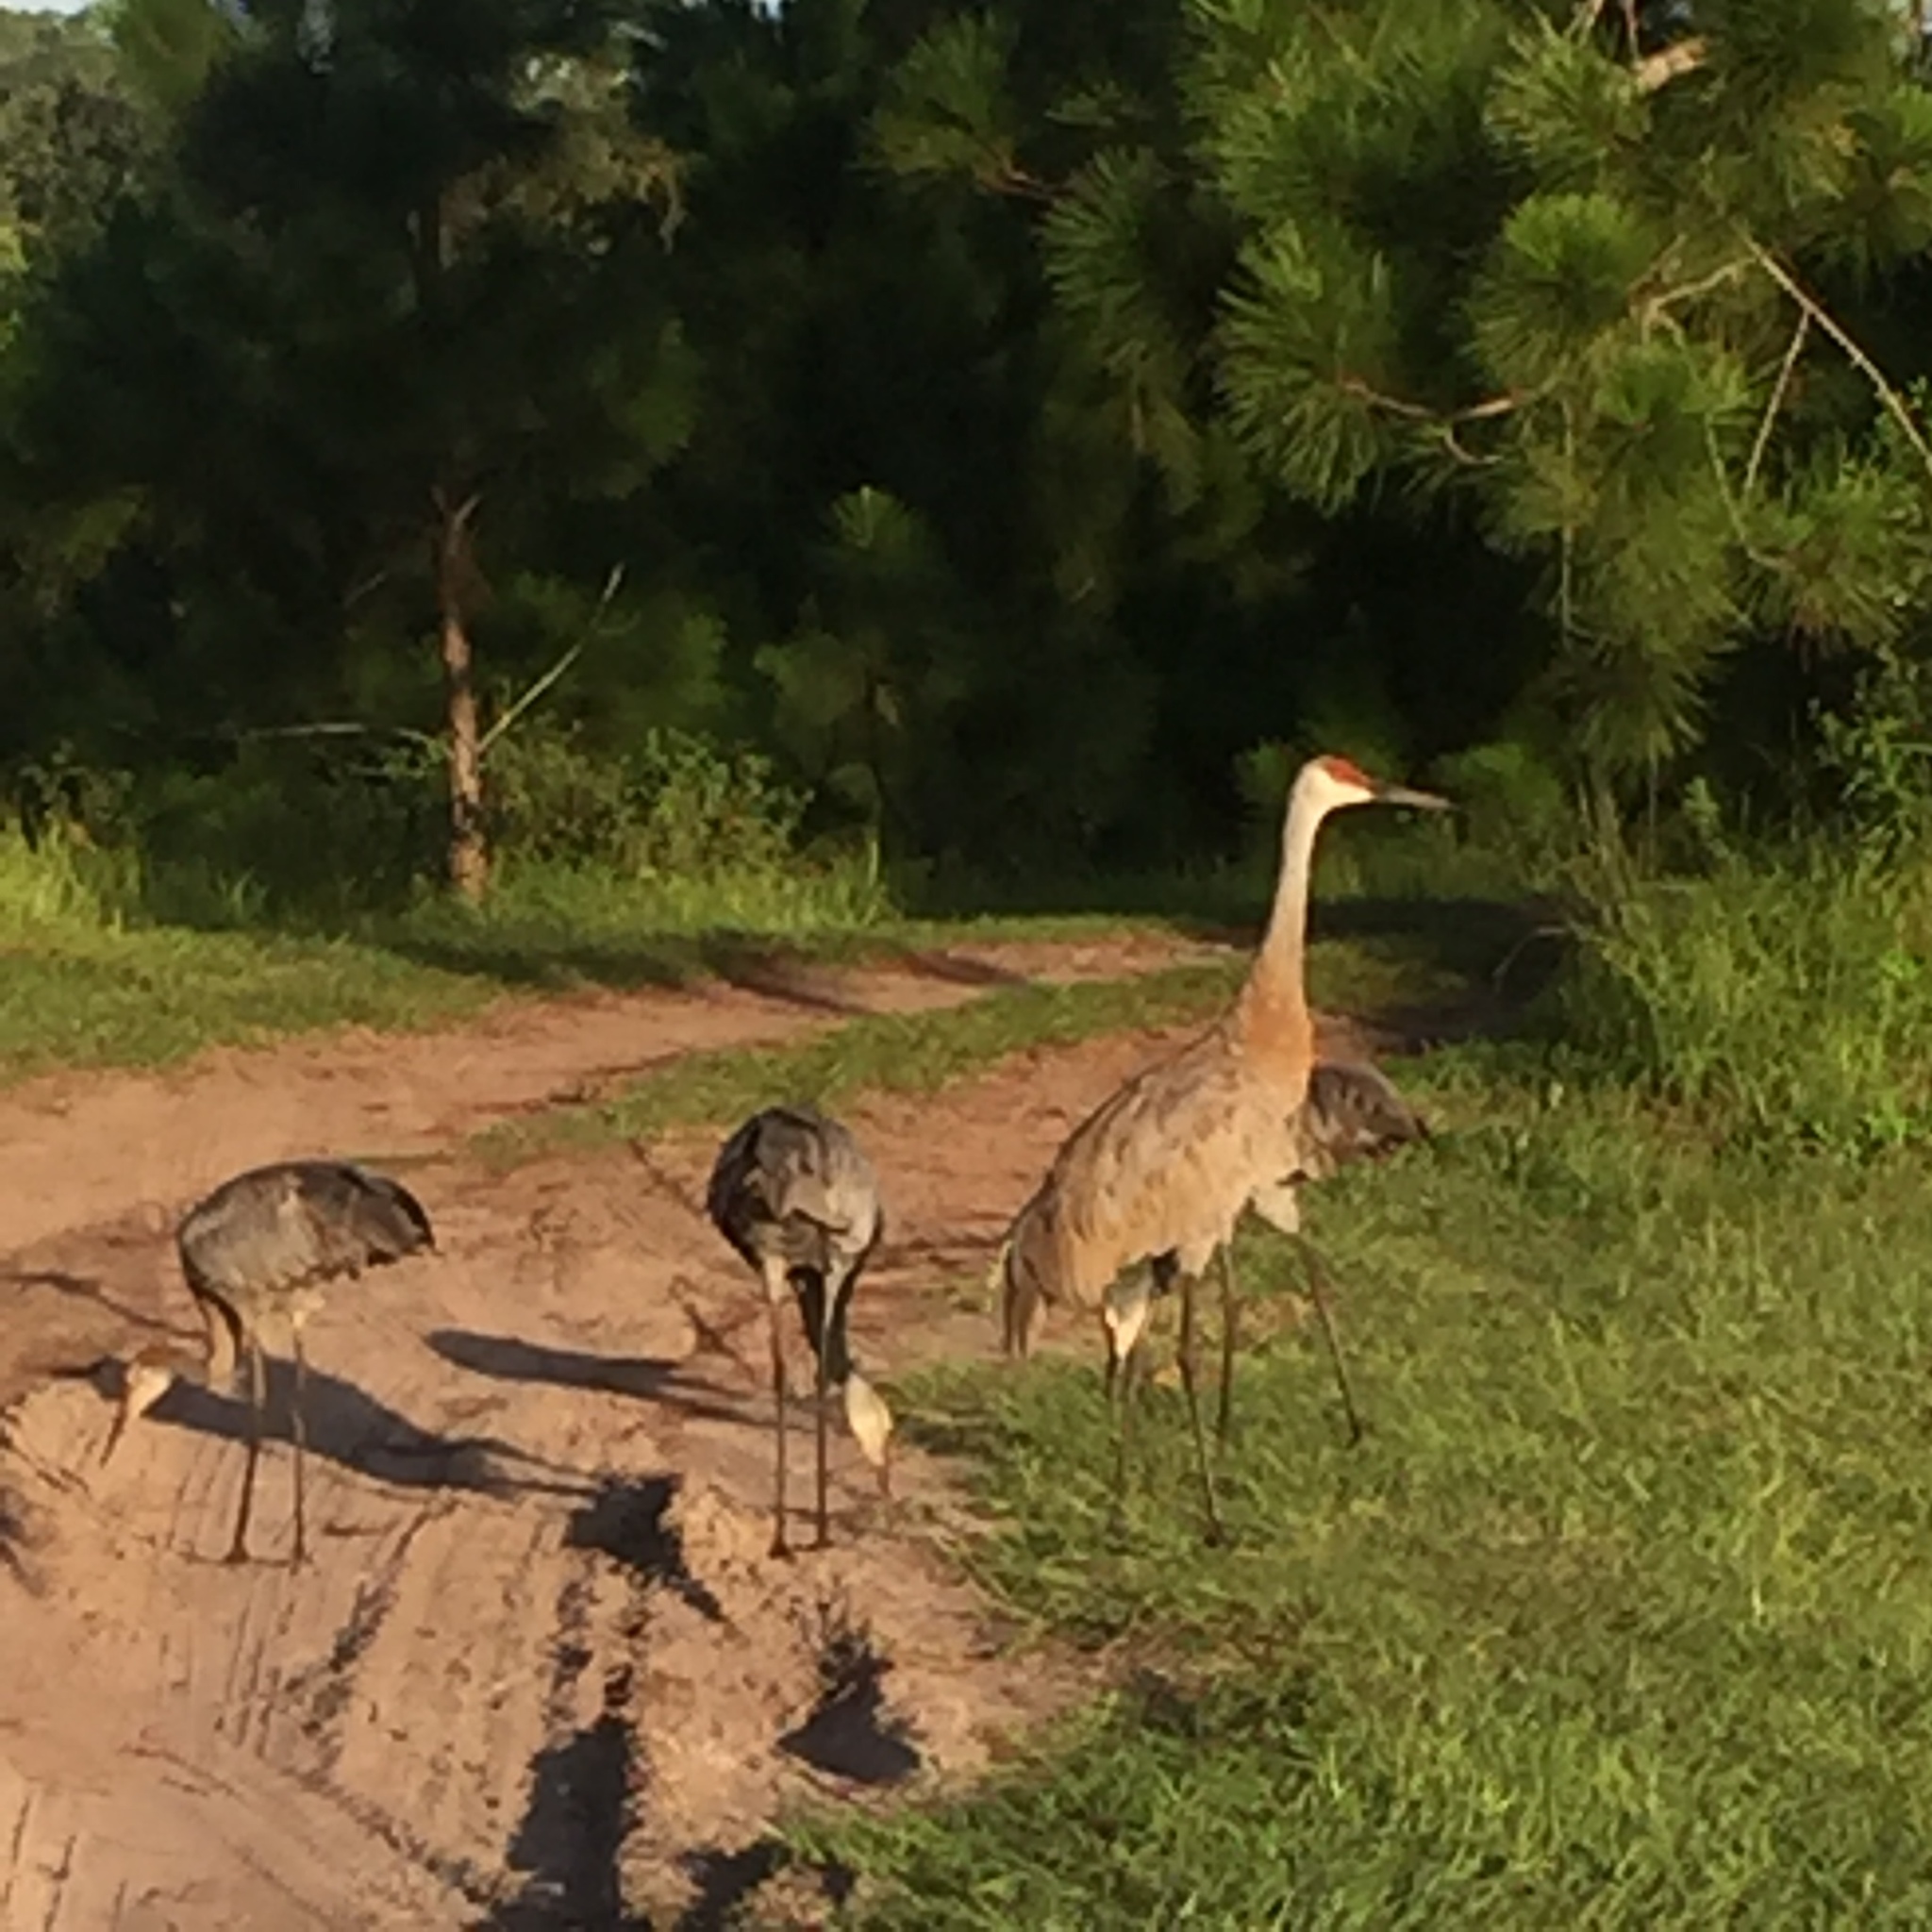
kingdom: Animalia
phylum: Chordata
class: Aves
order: Gruiformes
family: Gruidae
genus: Grus
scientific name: Grus canadensis
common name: Sandhill crane
